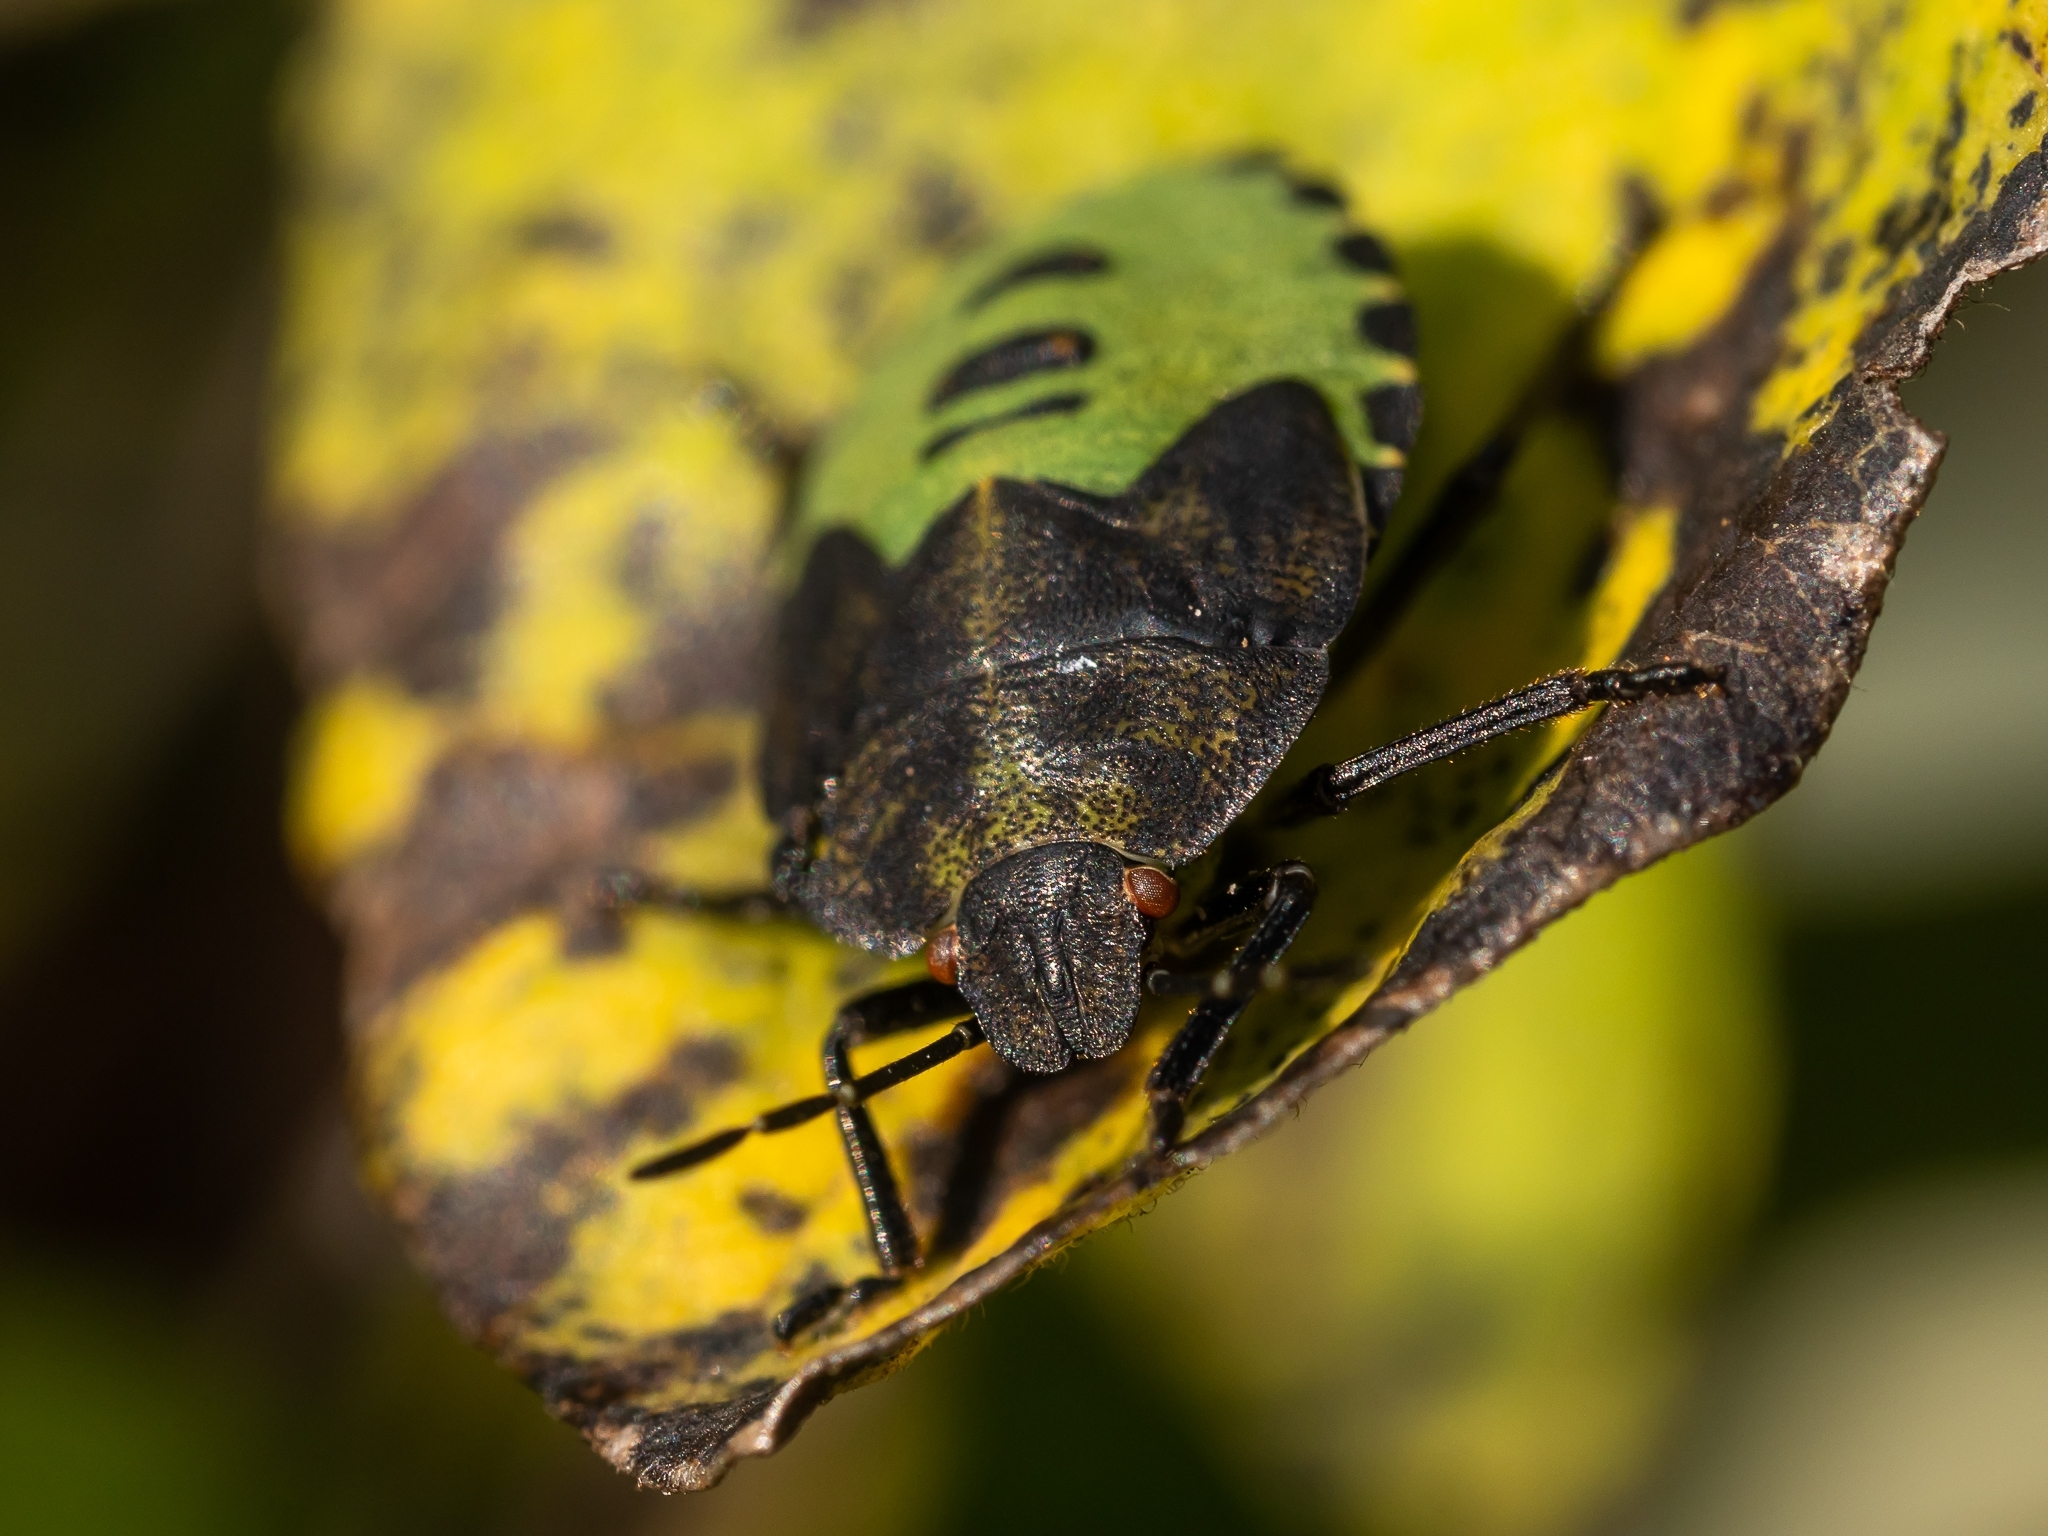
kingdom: Animalia
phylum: Arthropoda
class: Insecta
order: Hemiptera
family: Pentatomidae
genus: Palomena
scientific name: Palomena prasina
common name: Green shieldbug
